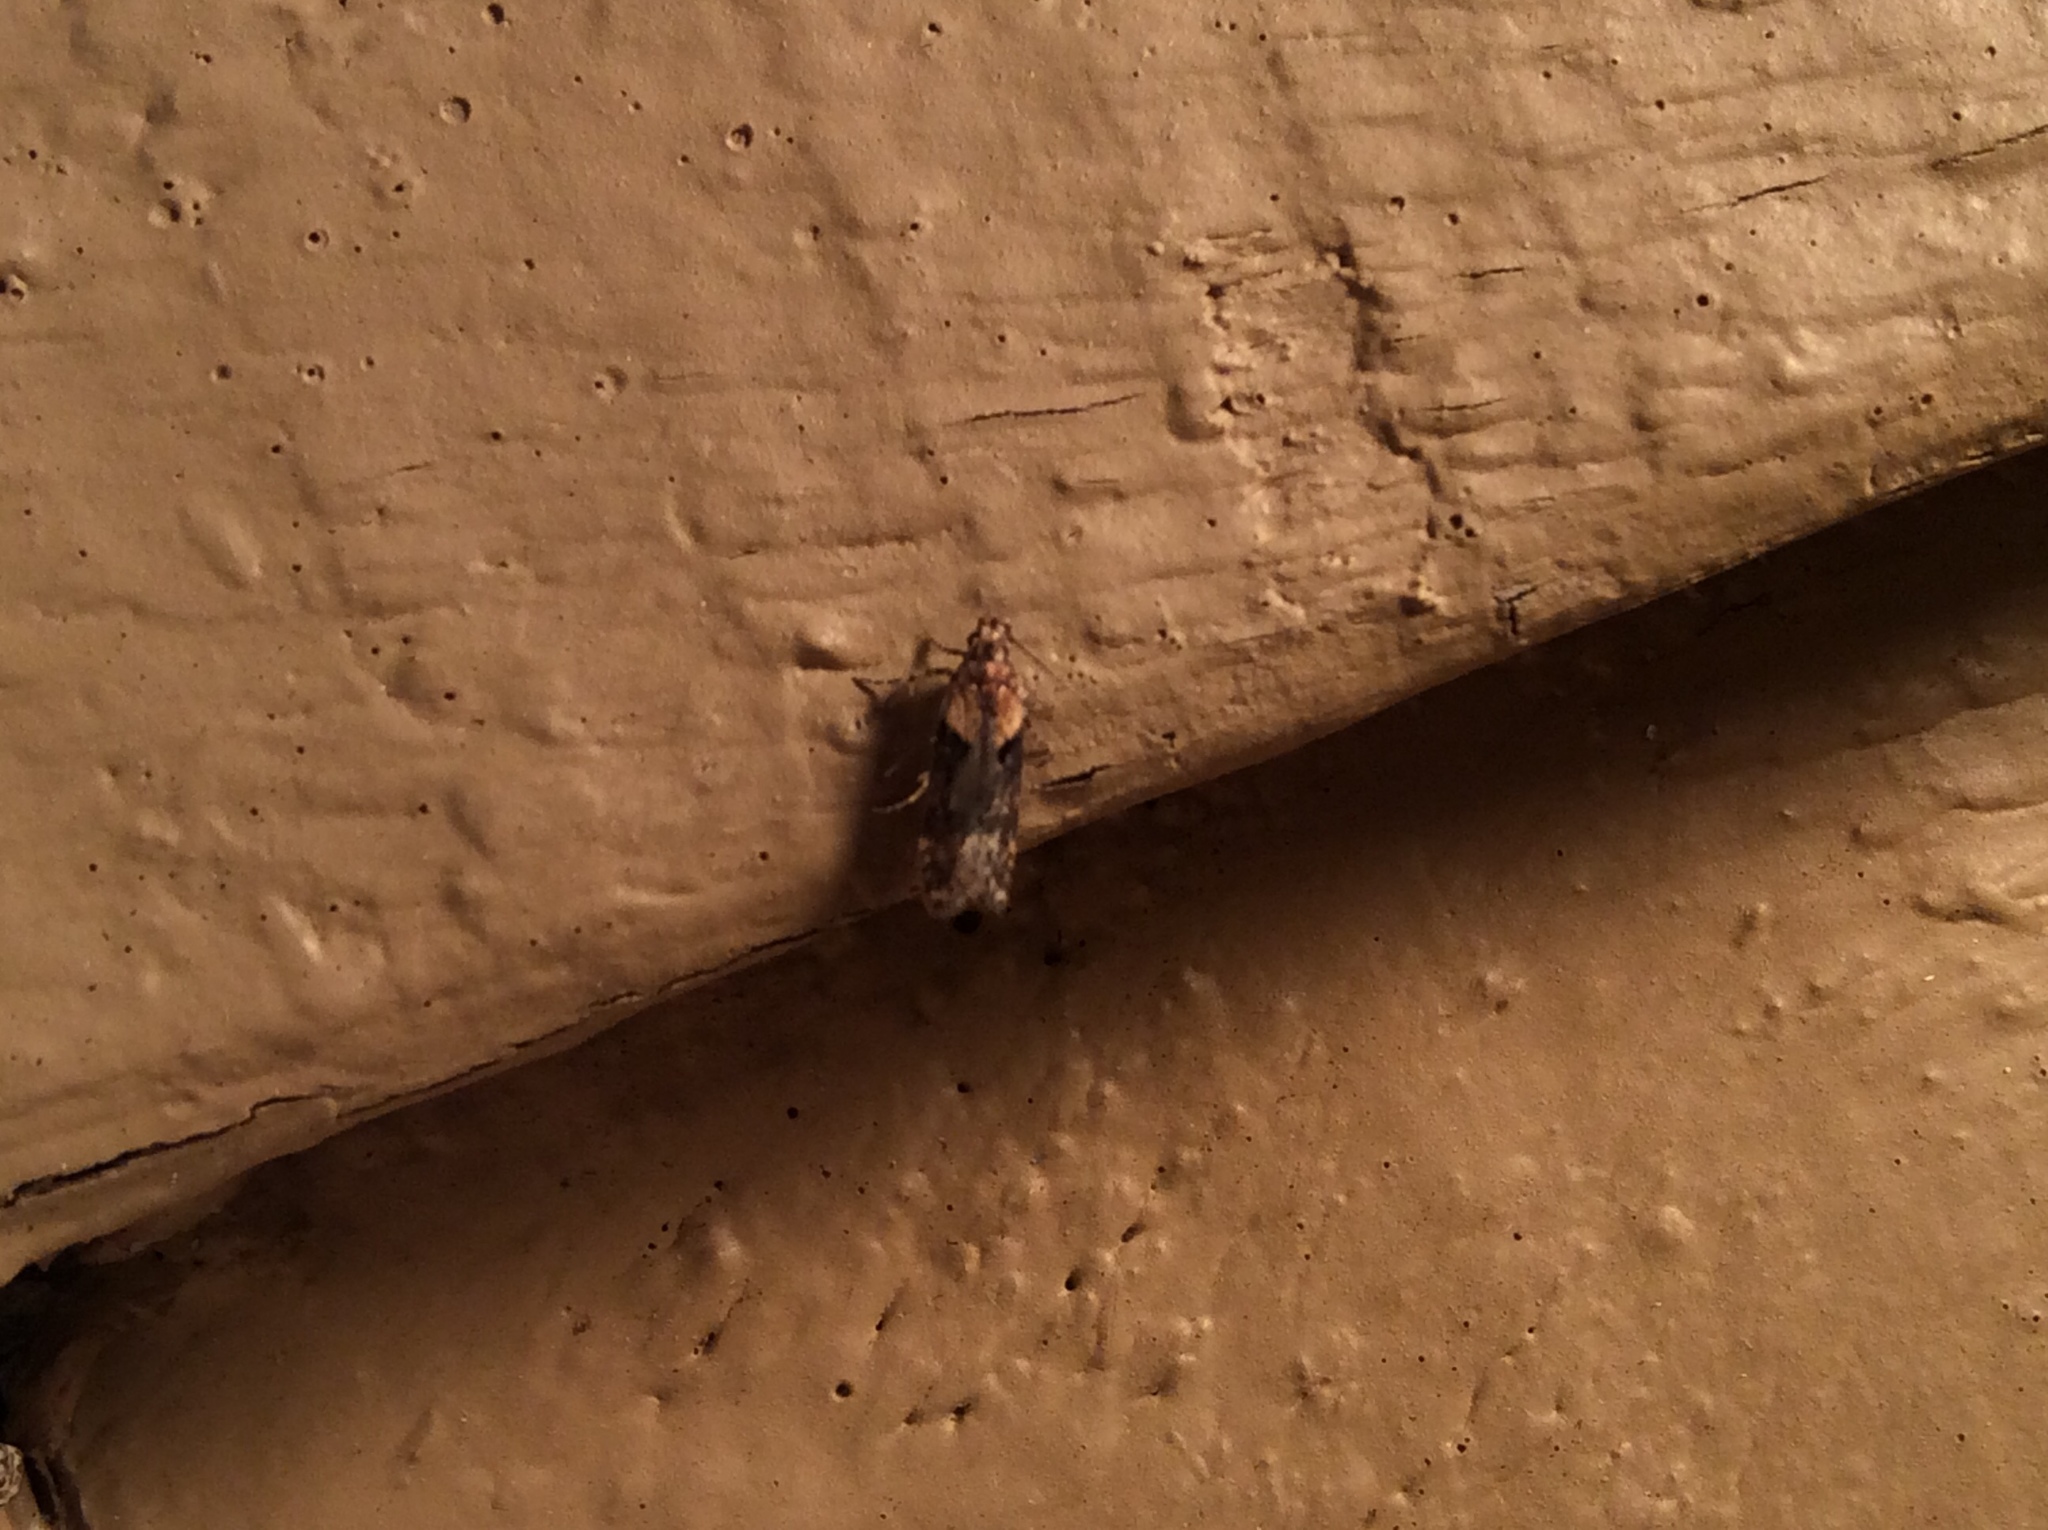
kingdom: Animalia
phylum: Arthropoda
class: Insecta
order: Lepidoptera
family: Gelechiidae
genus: Chionodes
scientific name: Chionodes mediofuscella
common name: Black-smudged chionodes moth
